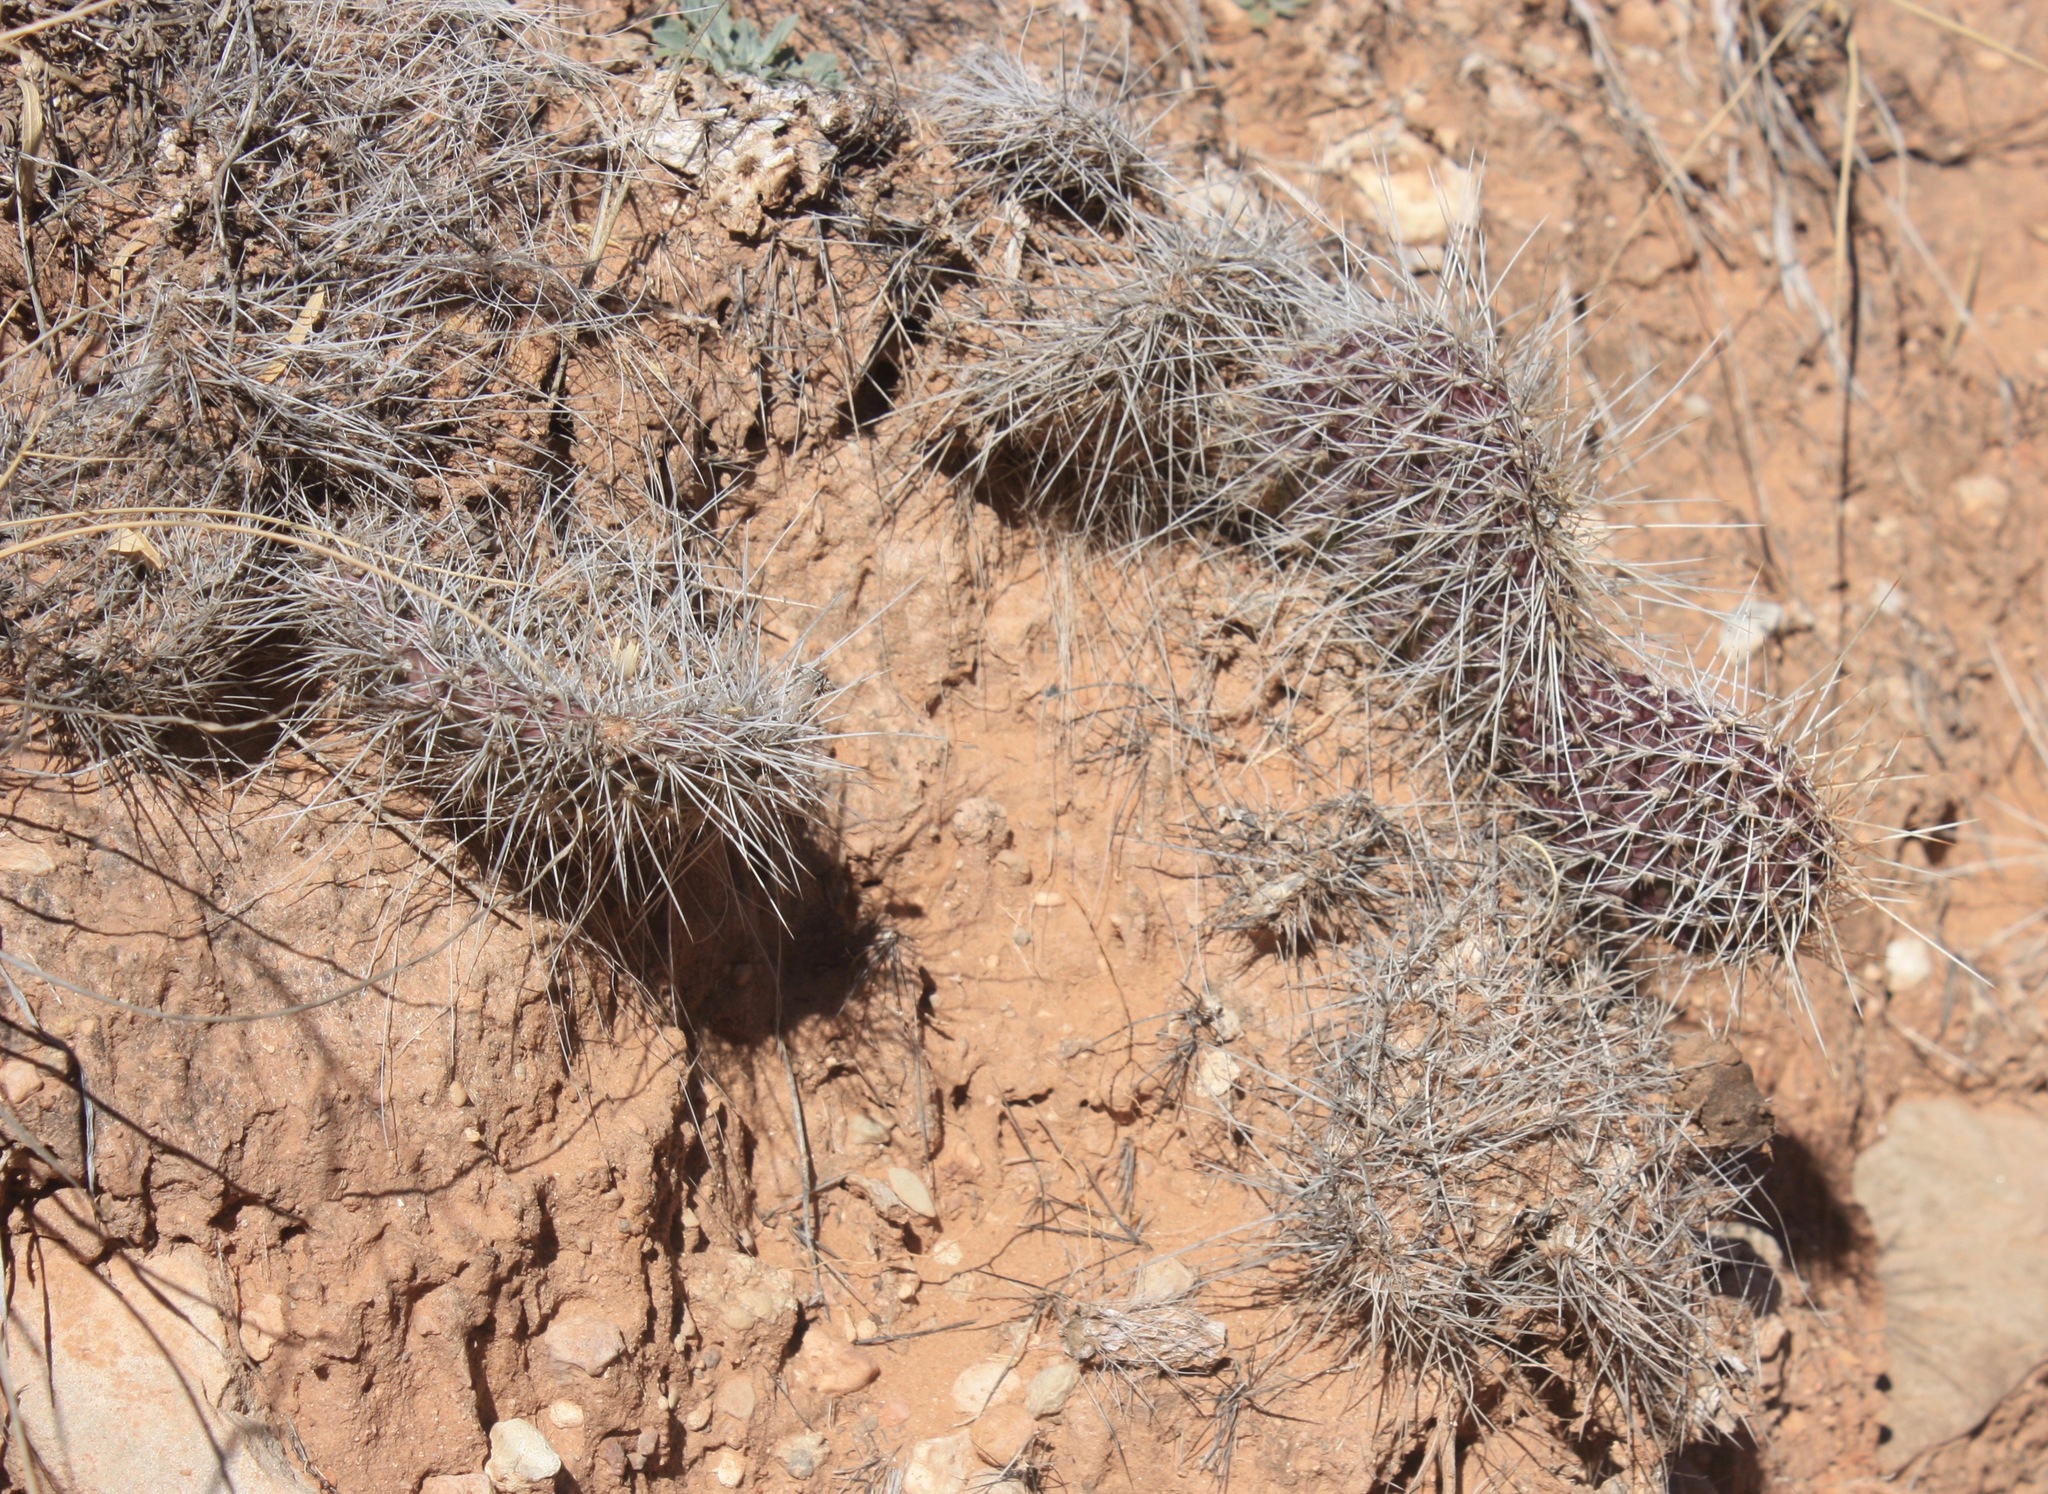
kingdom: Plantae
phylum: Tracheophyta
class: Magnoliopsida
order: Caryophyllales
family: Cactaceae
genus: Opuntia
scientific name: Opuntia polyacantha
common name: Plains prickly-pear
